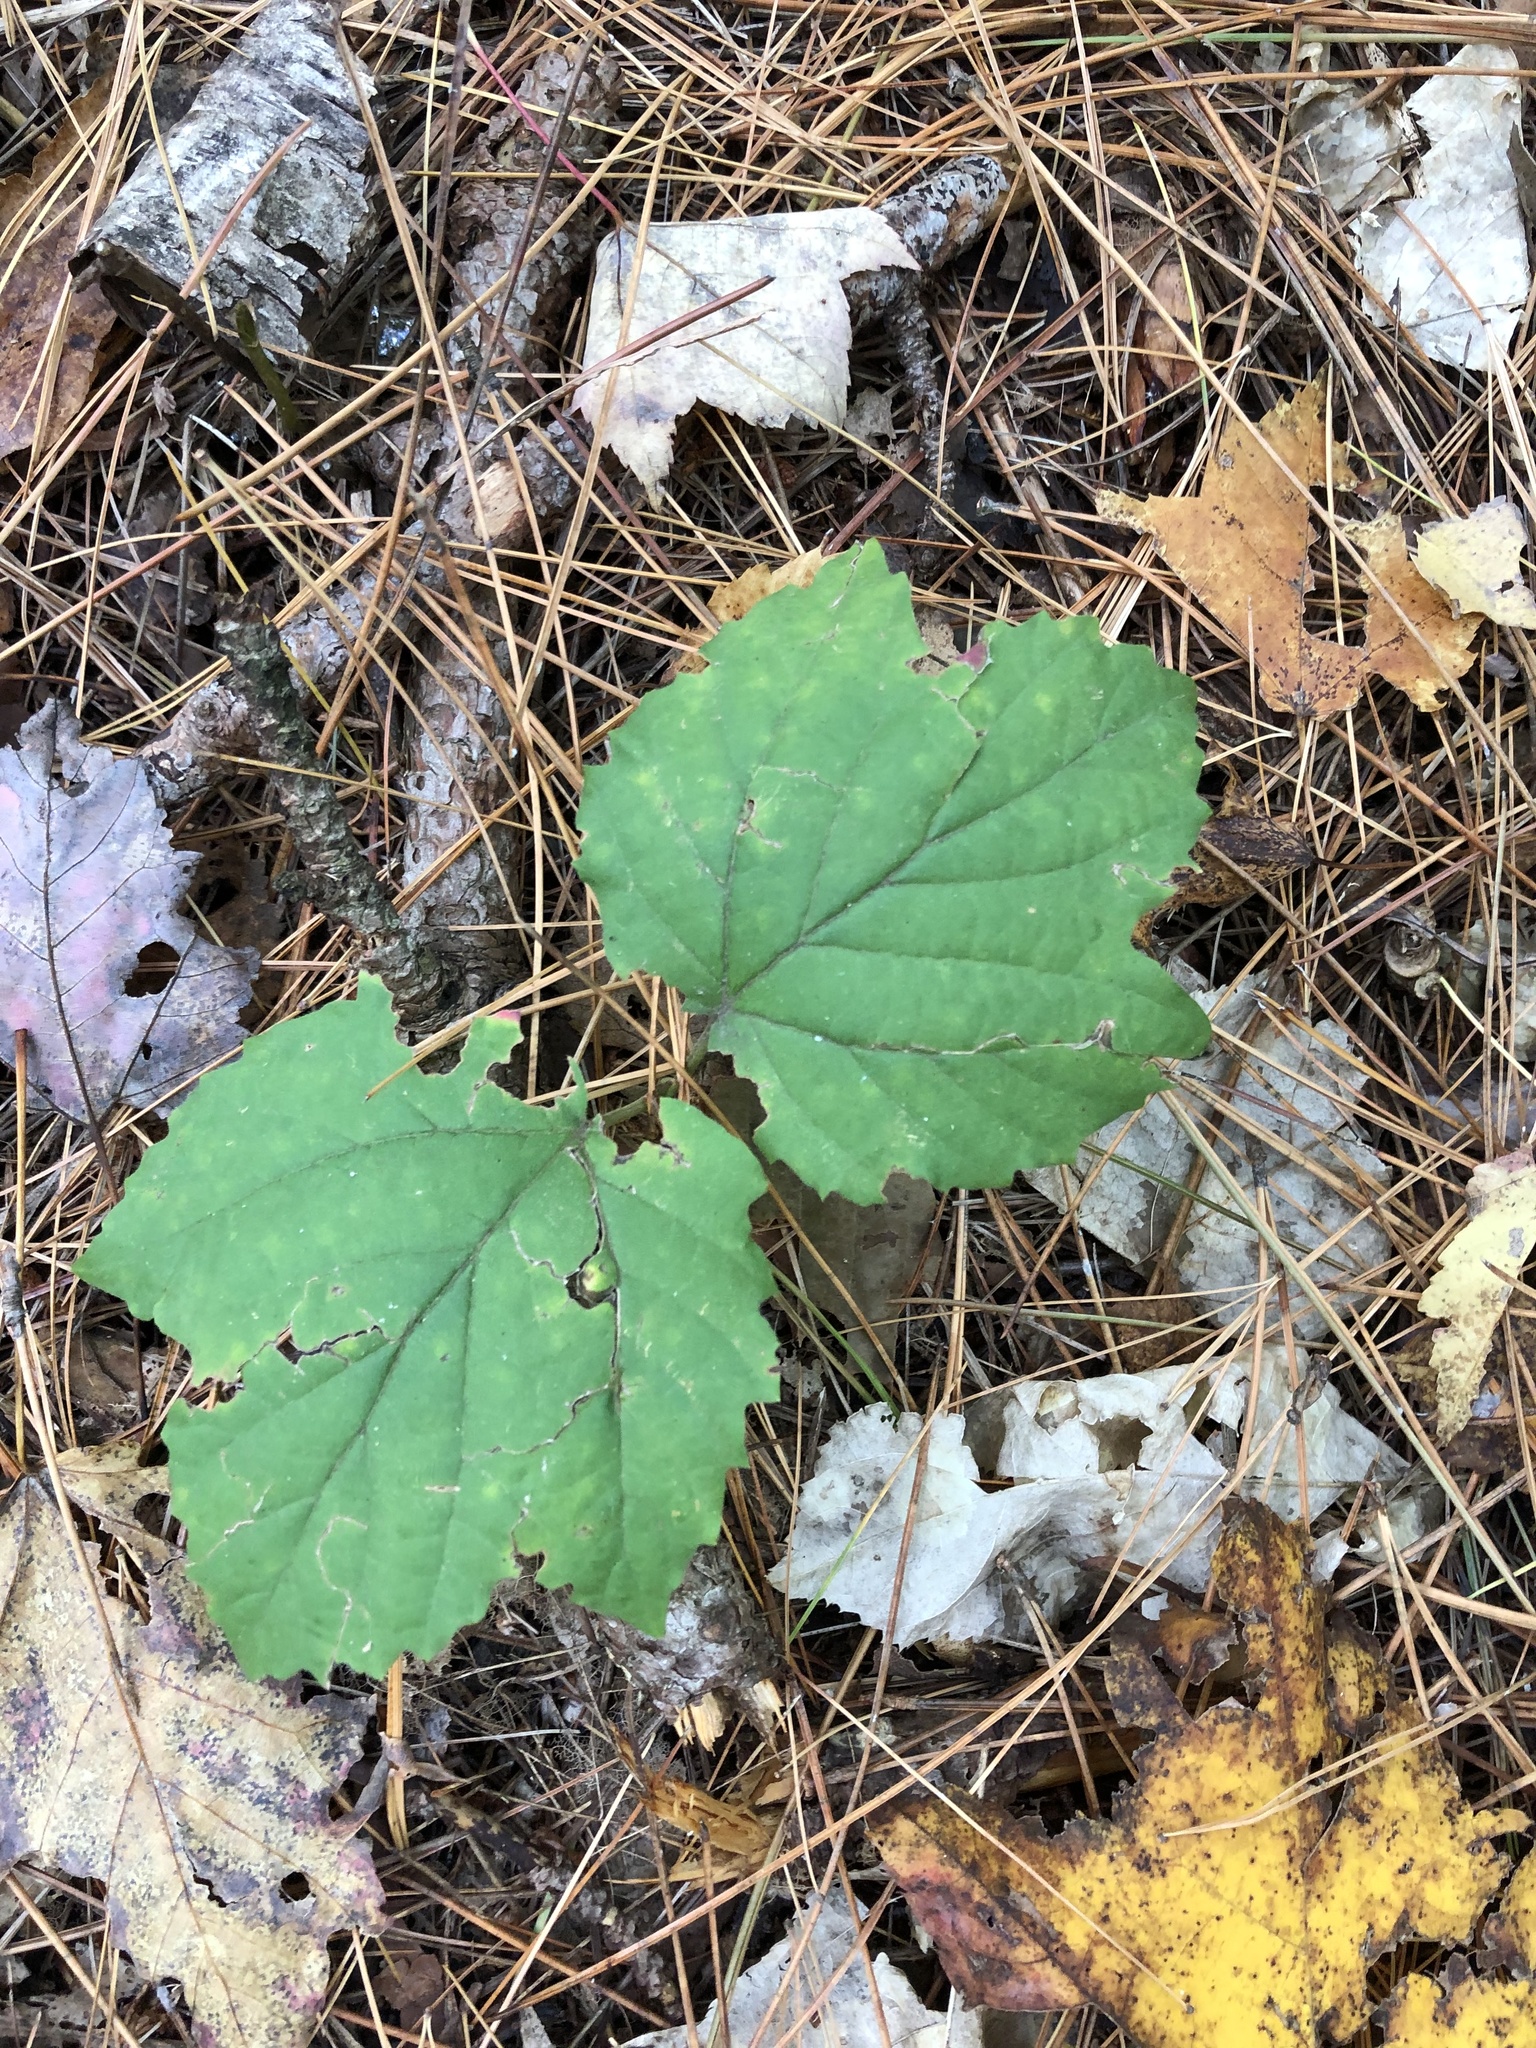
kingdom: Plantae
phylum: Tracheophyta
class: Magnoliopsida
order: Dipsacales
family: Viburnaceae
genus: Viburnum
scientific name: Viburnum acerifolium
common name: Dockmackie
